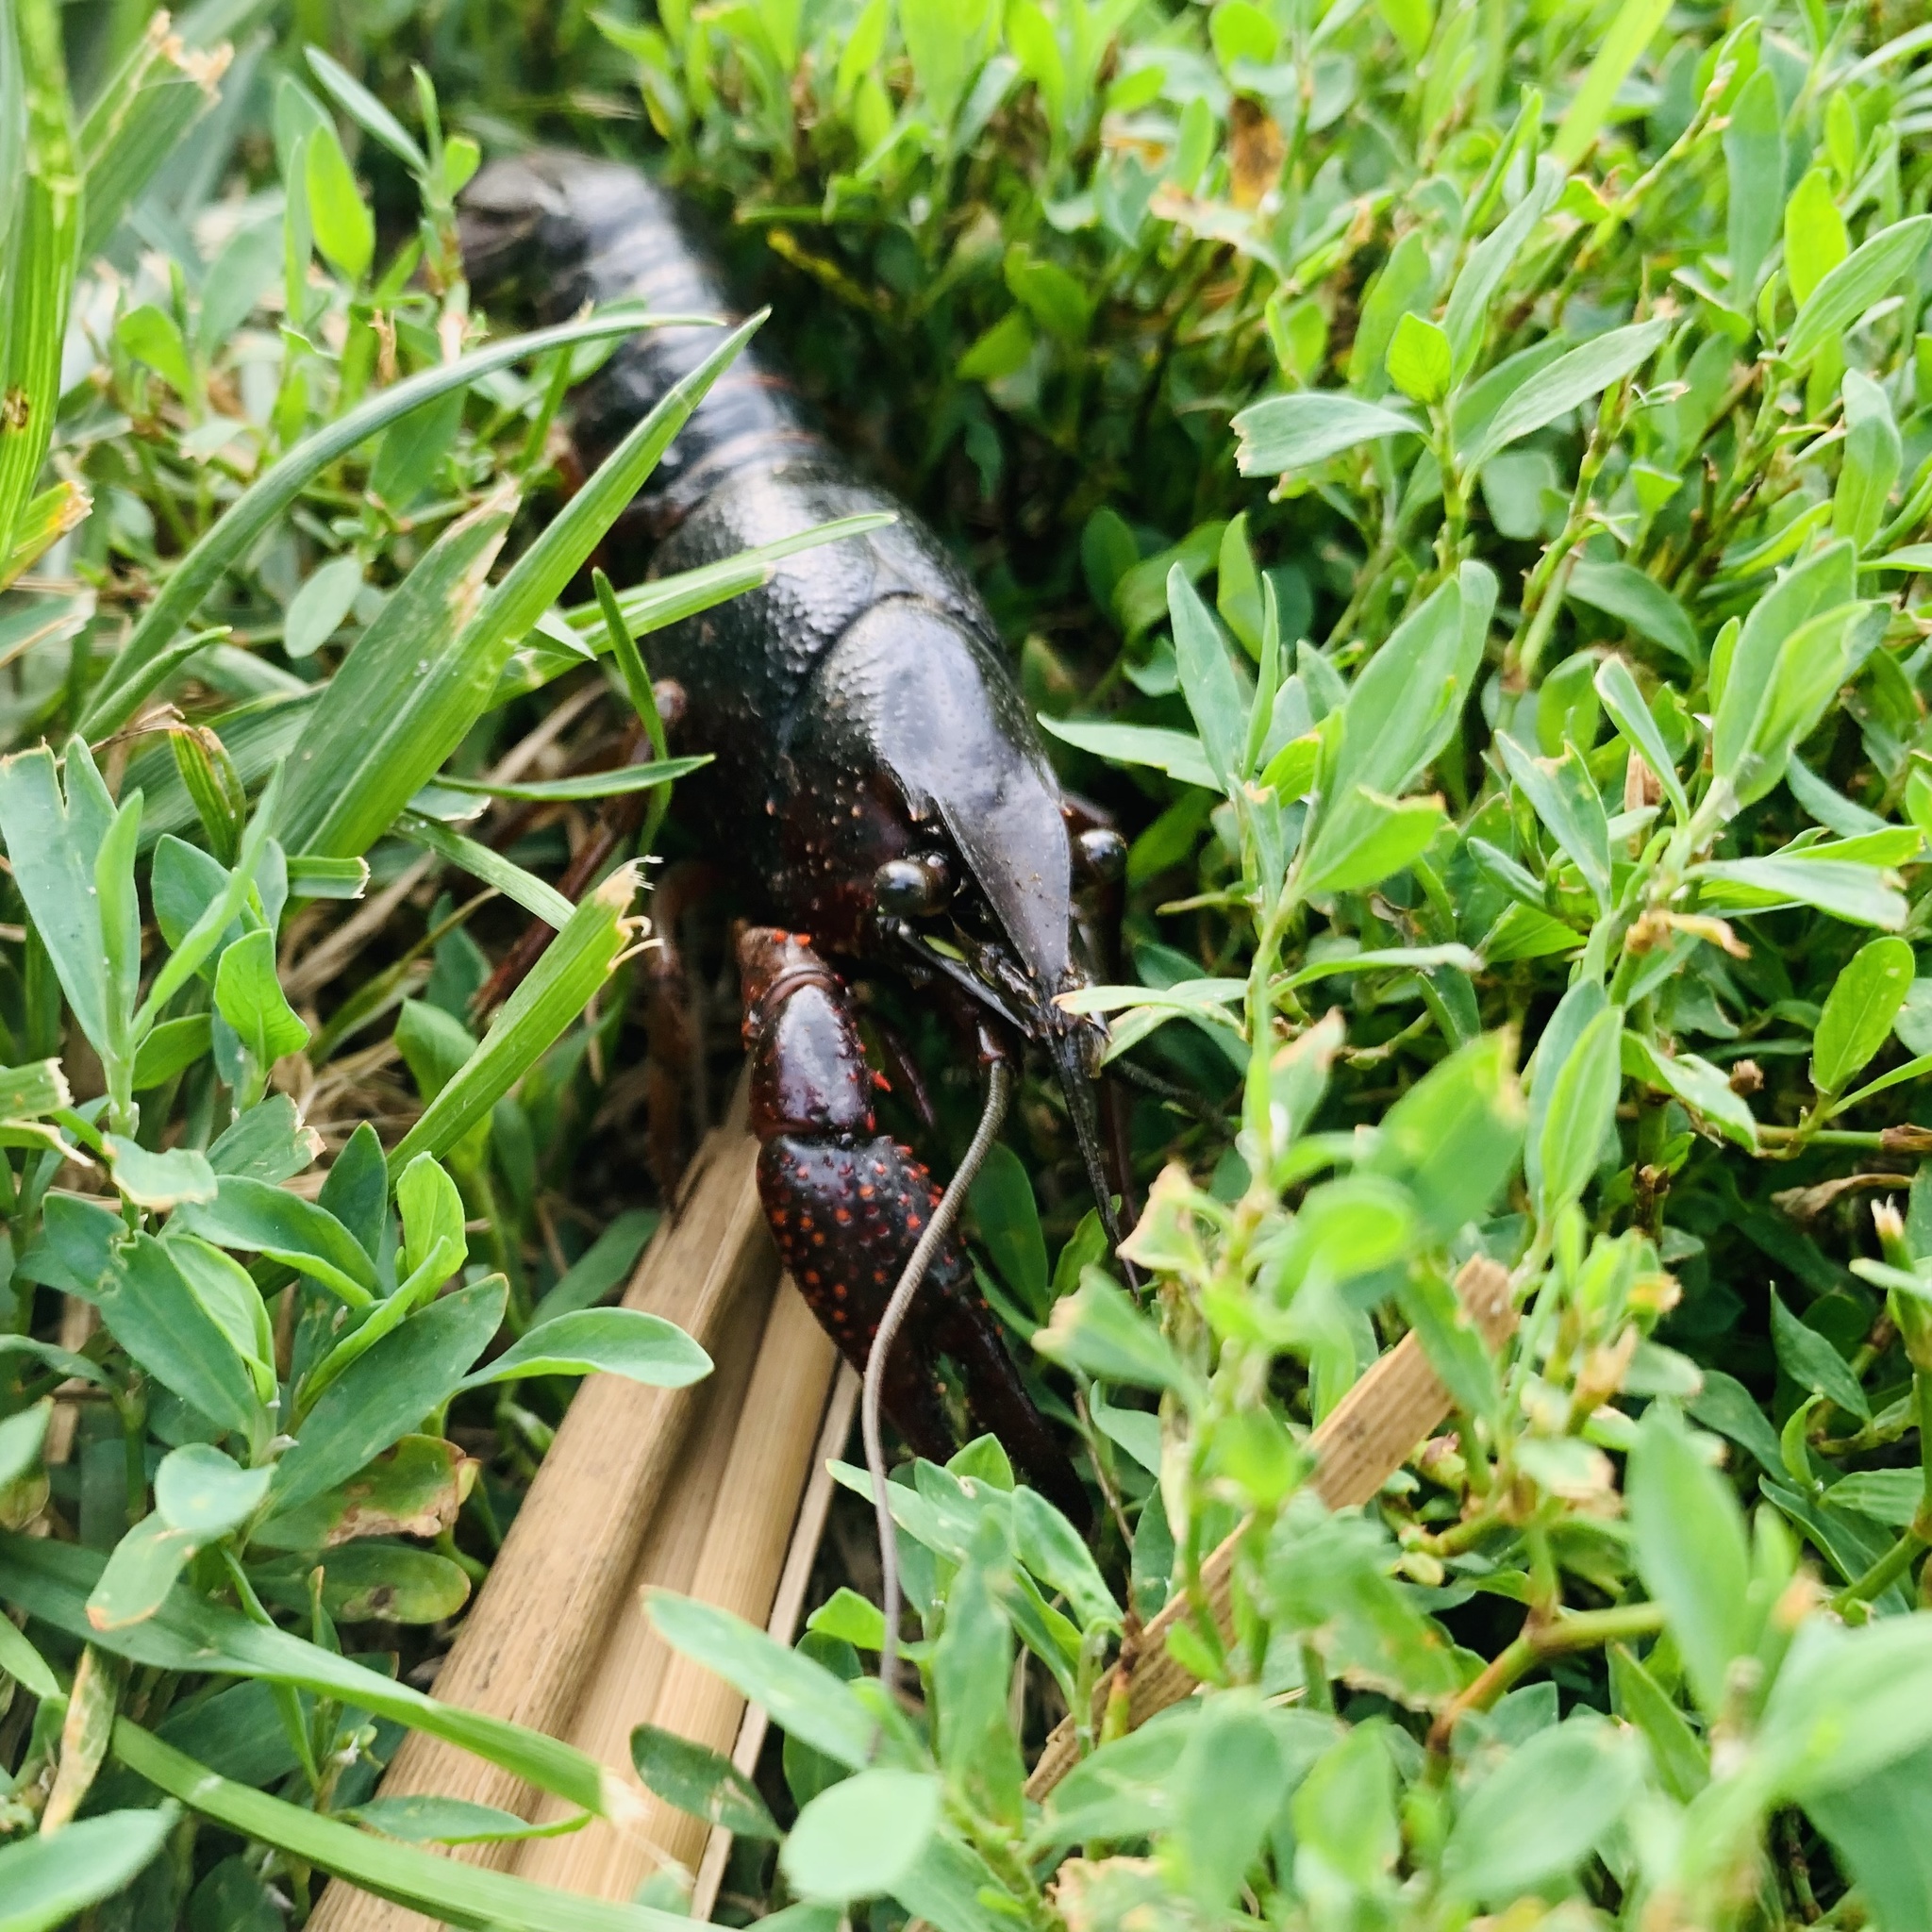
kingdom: Animalia
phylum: Arthropoda
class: Malacostraca
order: Decapoda
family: Cambaridae
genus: Procambarus
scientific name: Procambarus clarkii
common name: Red swamp crayfish
